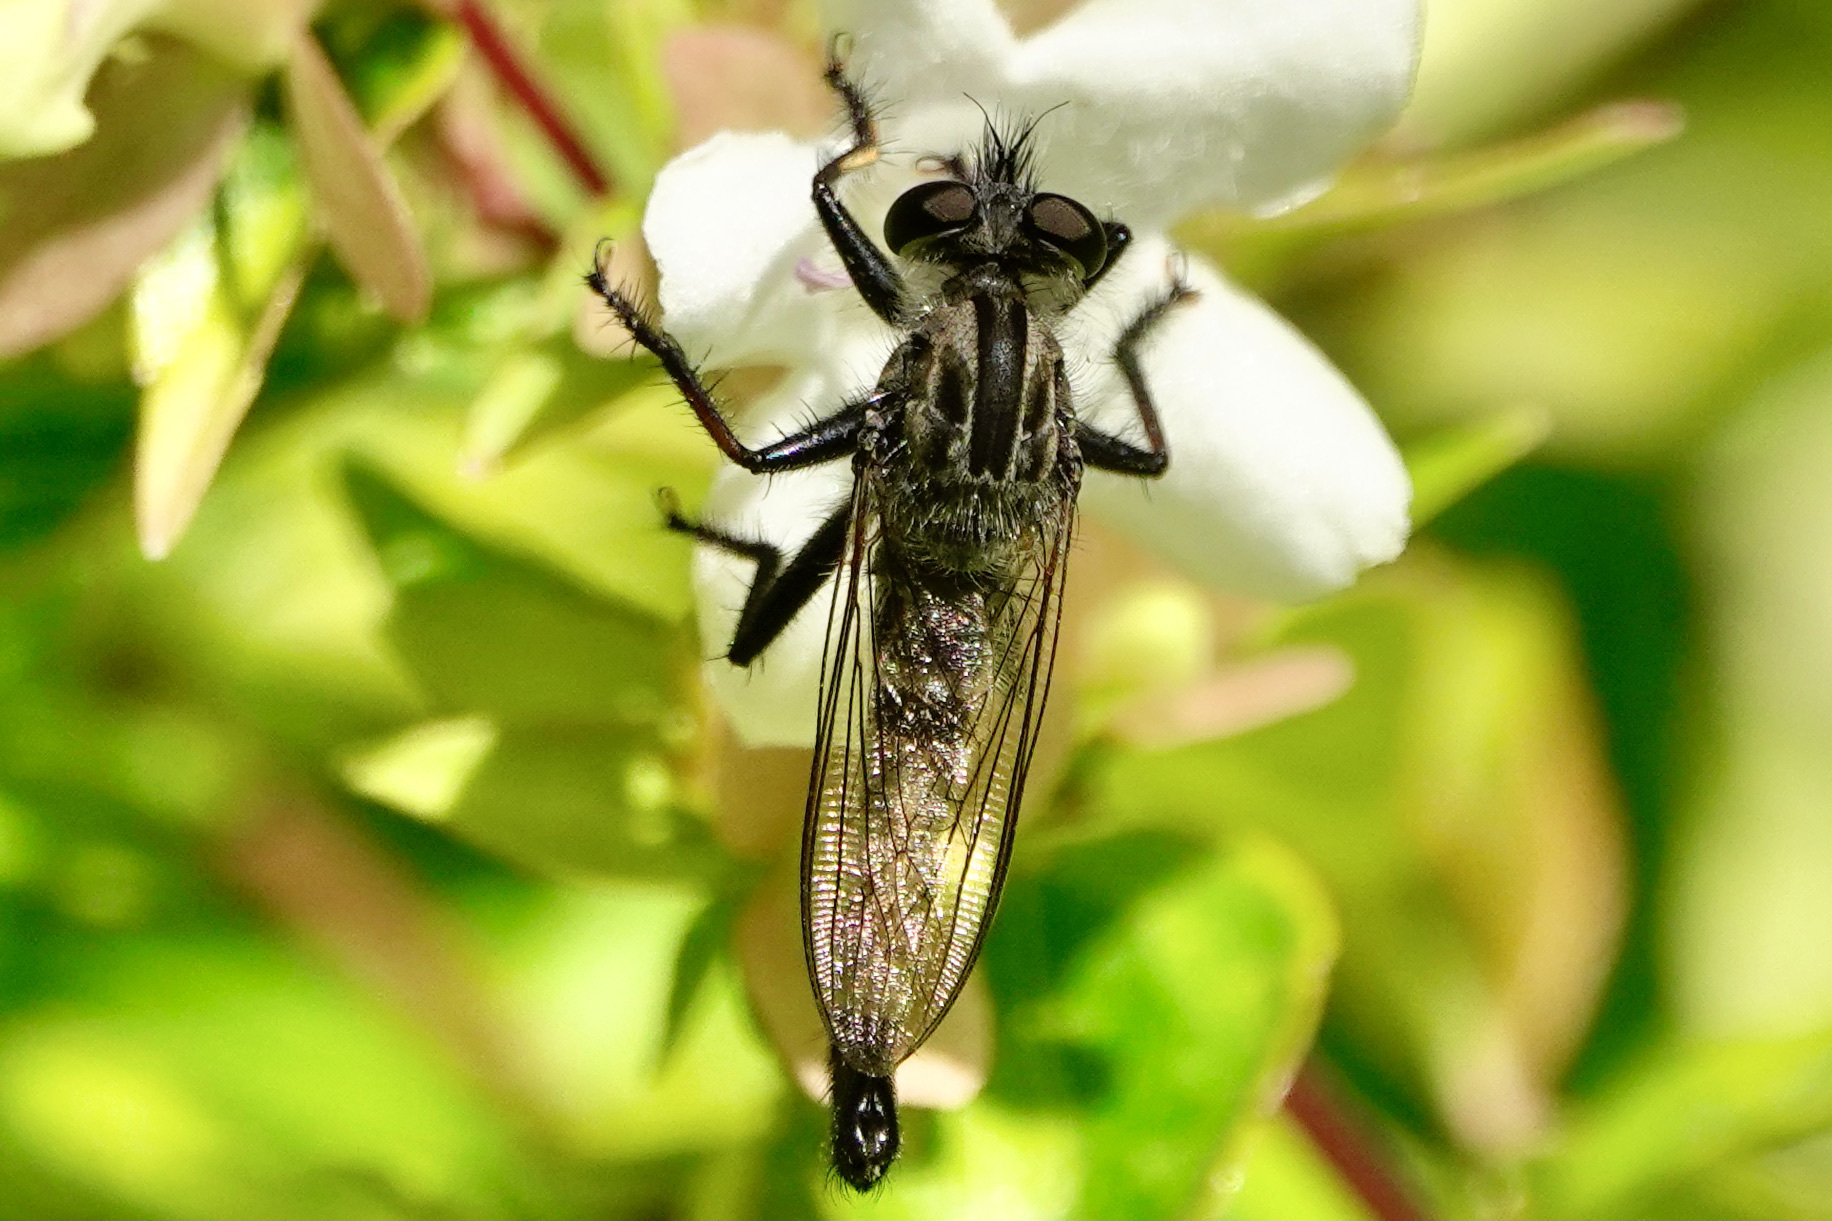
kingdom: Animalia
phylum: Arthropoda
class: Insecta
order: Diptera
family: Asilidae
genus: Efferia
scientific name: Efferia aestuans
